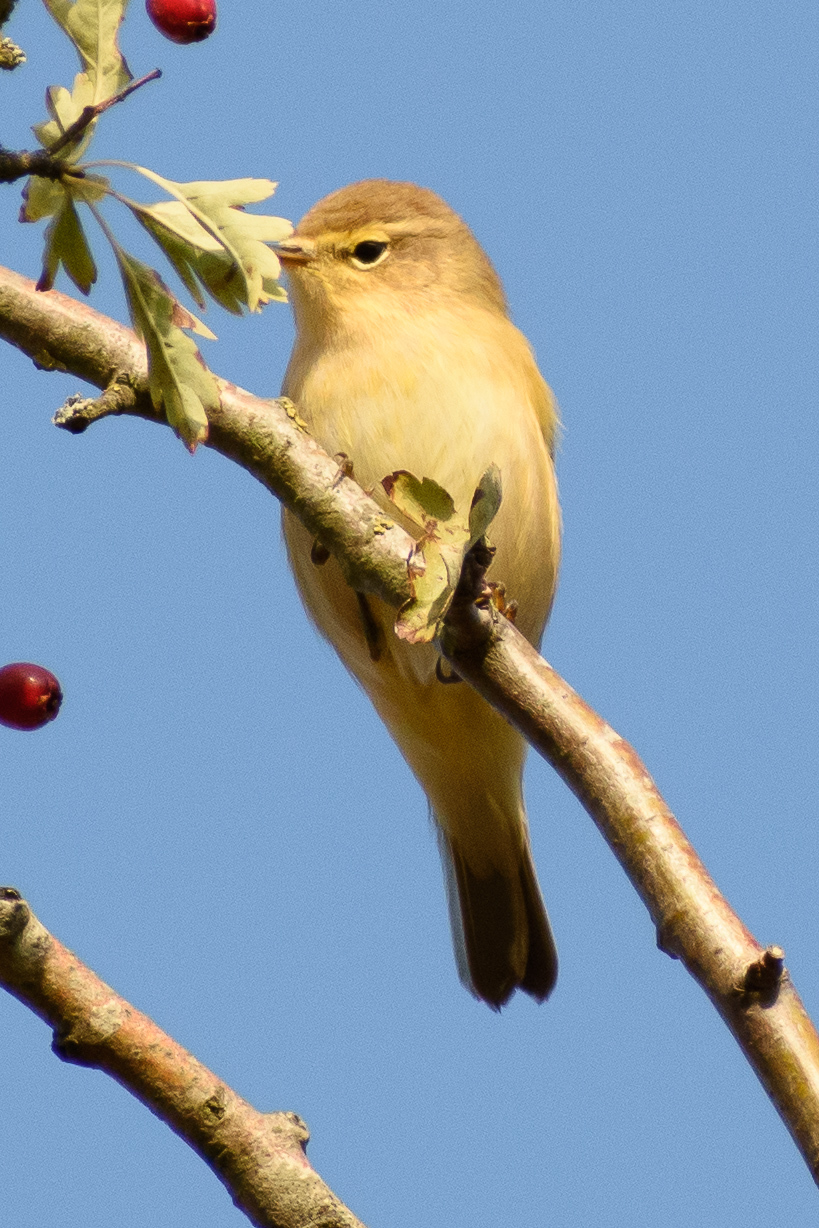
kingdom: Animalia
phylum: Chordata
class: Aves
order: Passeriformes
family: Phylloscopidae
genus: Phylloscopus
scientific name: Phylloscopus collybita
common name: Common chiffchaff
